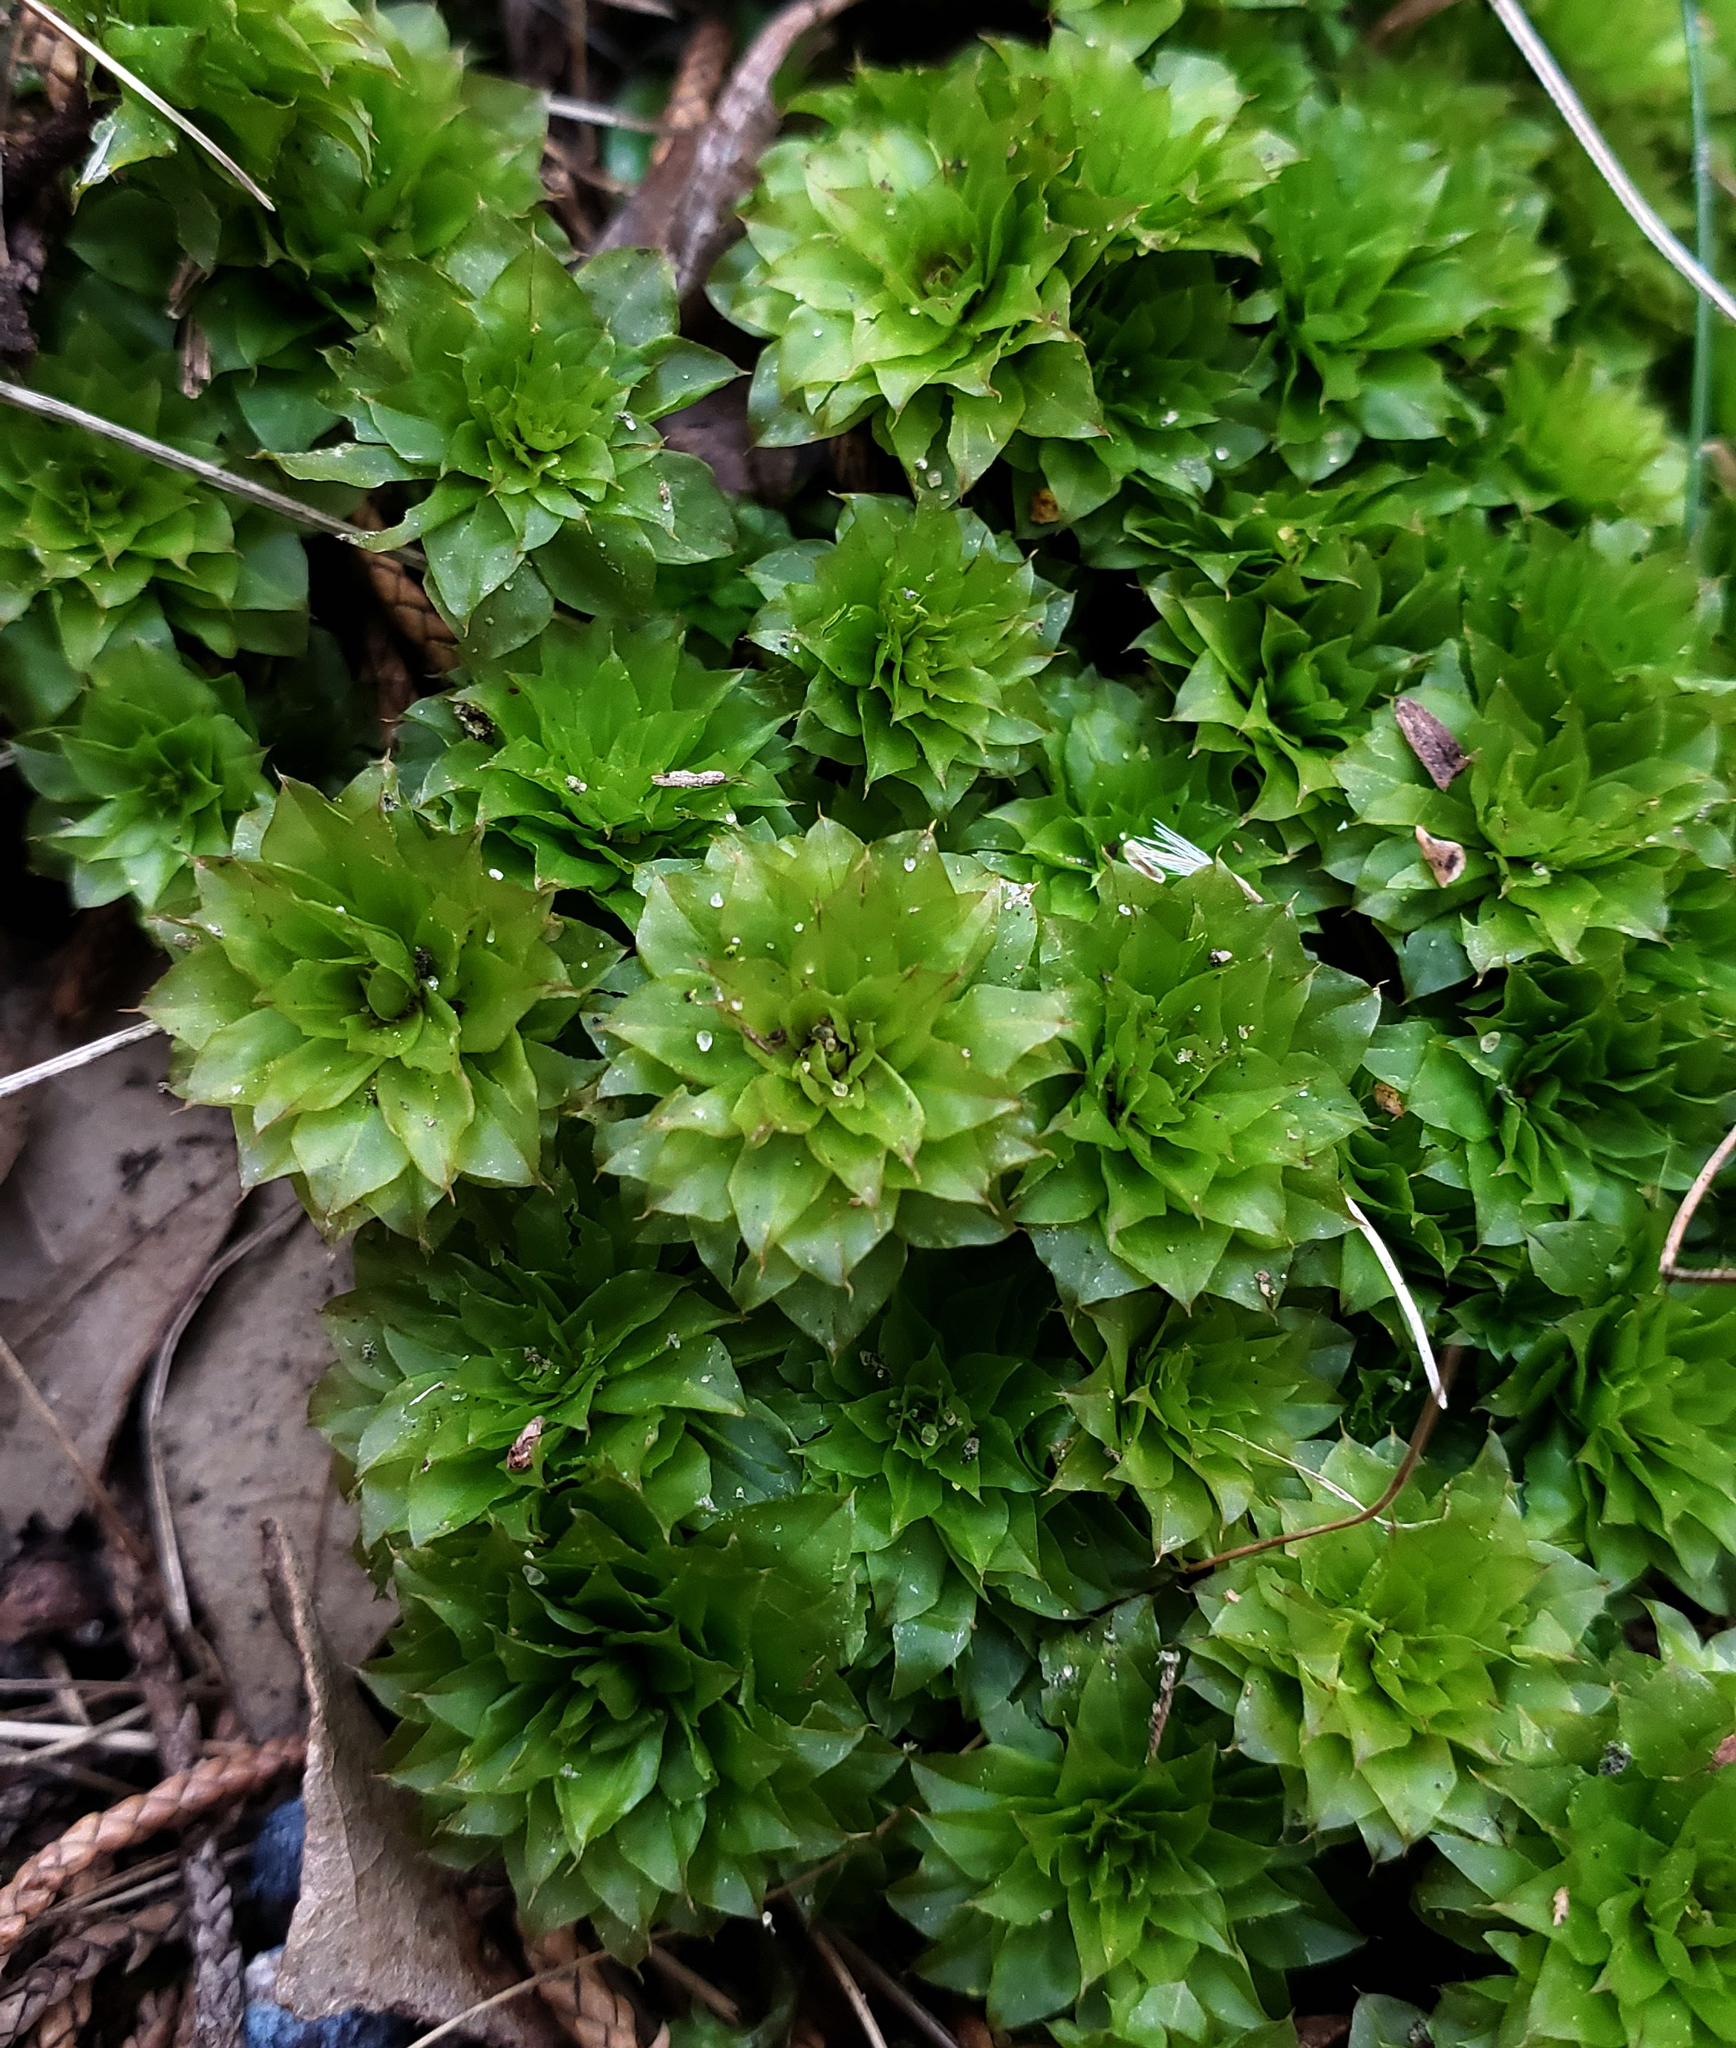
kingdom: Plantae
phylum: Bryophyta
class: Bryopsida
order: Bryales
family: Bryaceae
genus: Rhodobryum
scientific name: Rhodobryum ontariense
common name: Ontario rhodobryum moss
